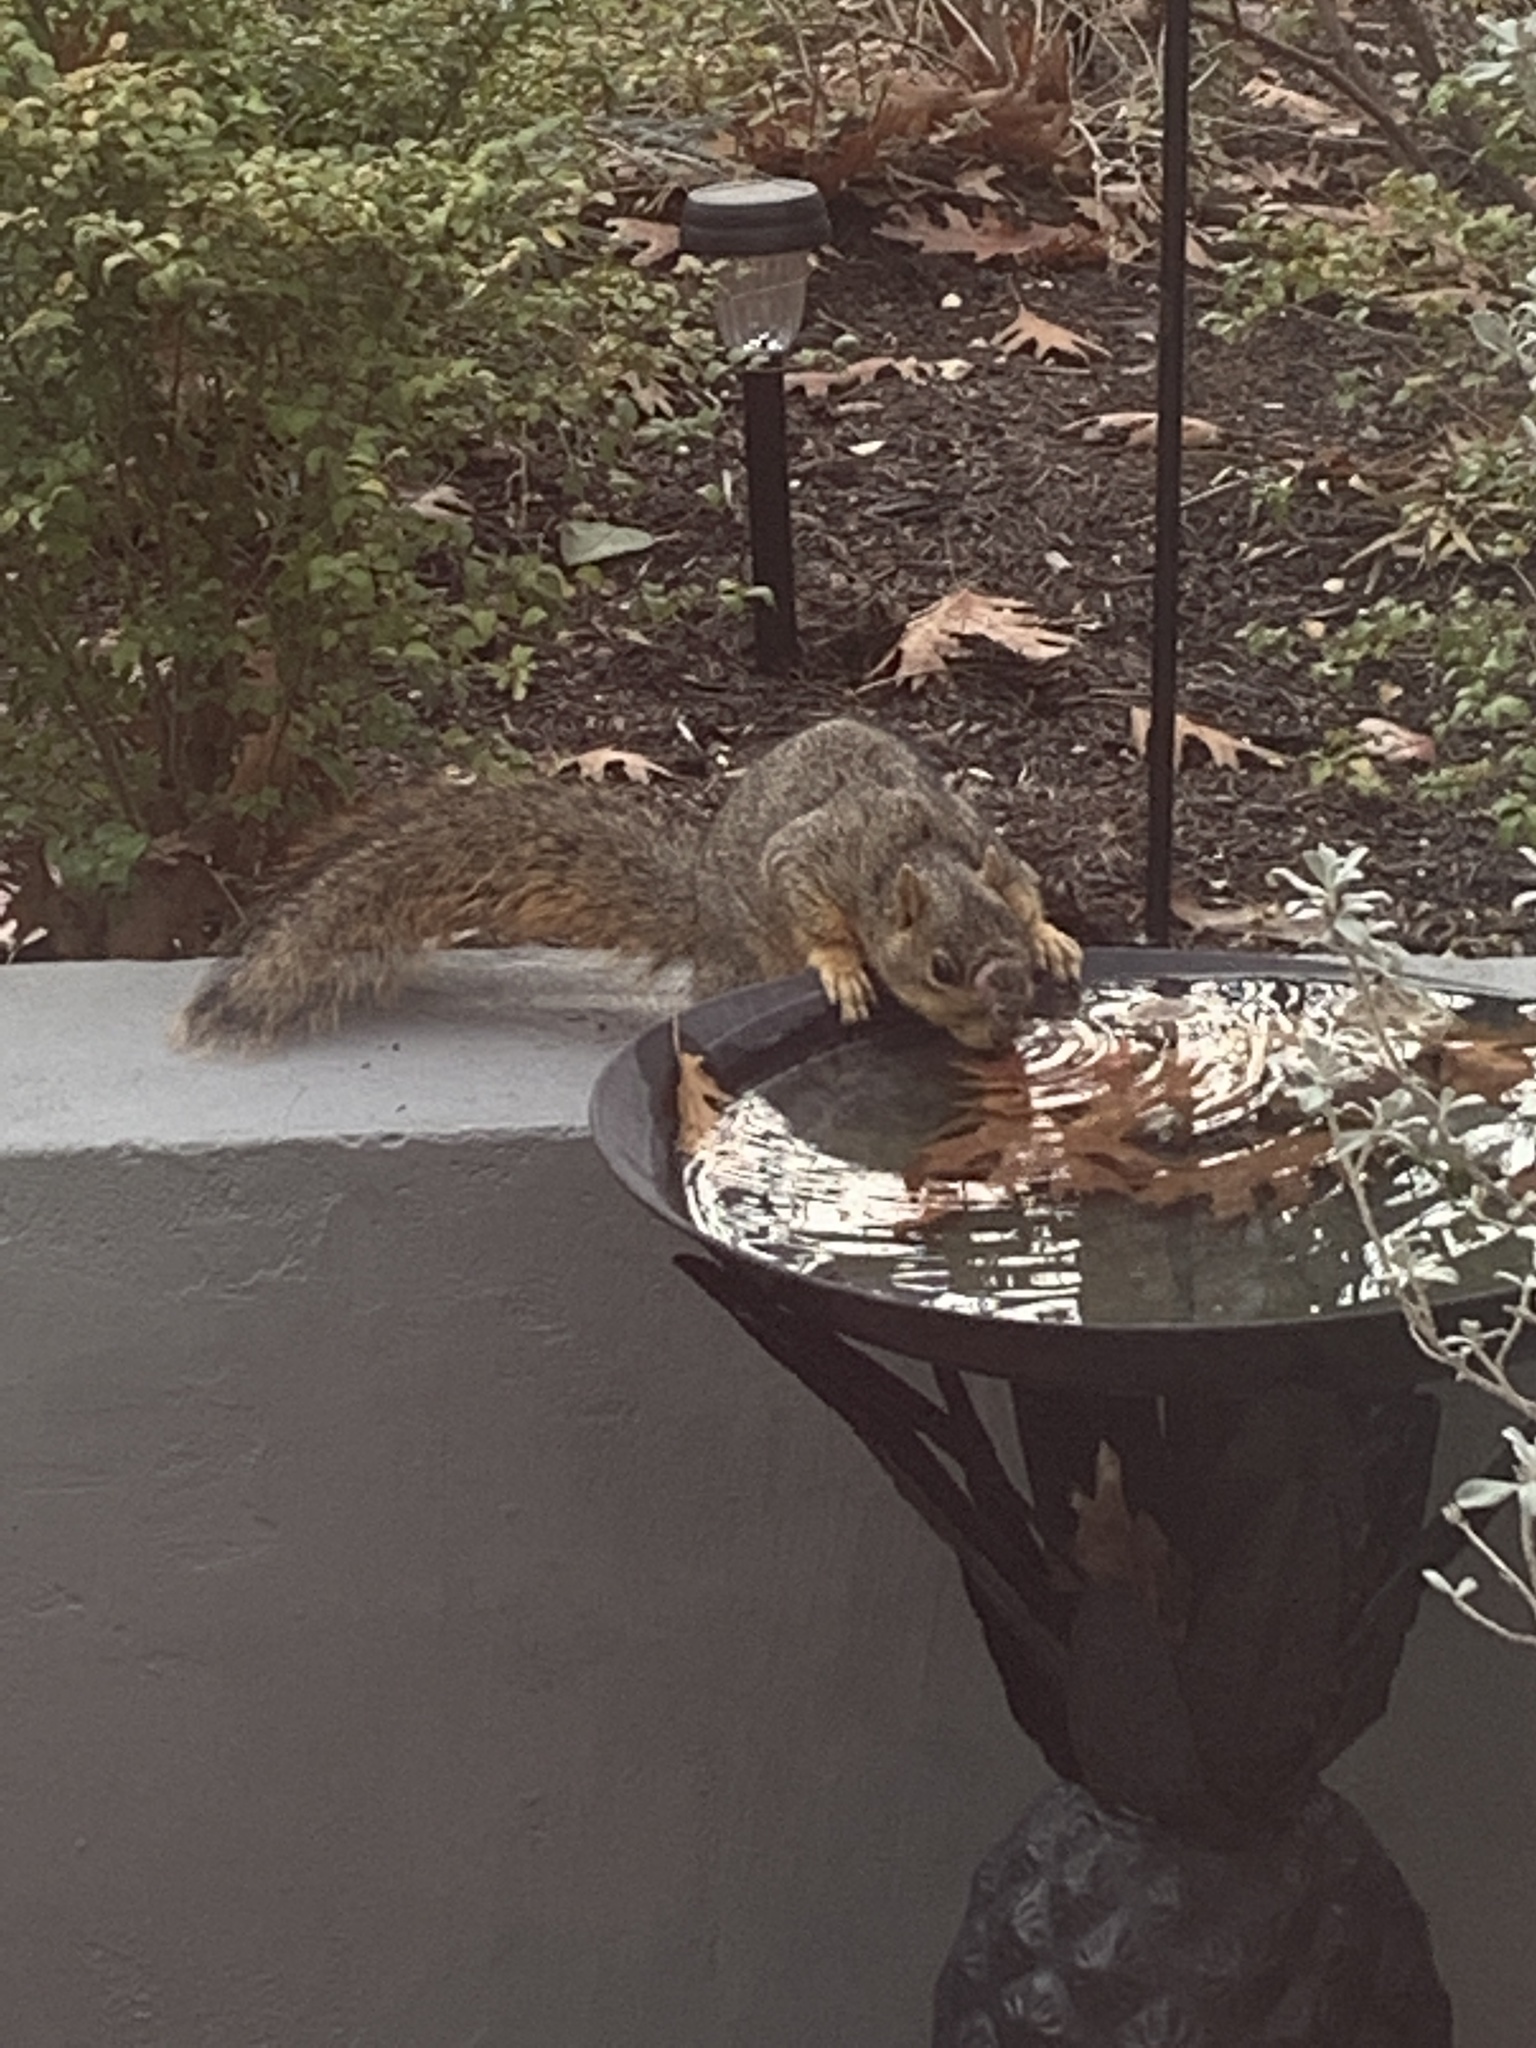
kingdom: Animalia
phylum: Chordata
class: Mammalia
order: Rodentia
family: Sciuridae
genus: Sciurus
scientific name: Sciurus niger
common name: Fox squirrel
